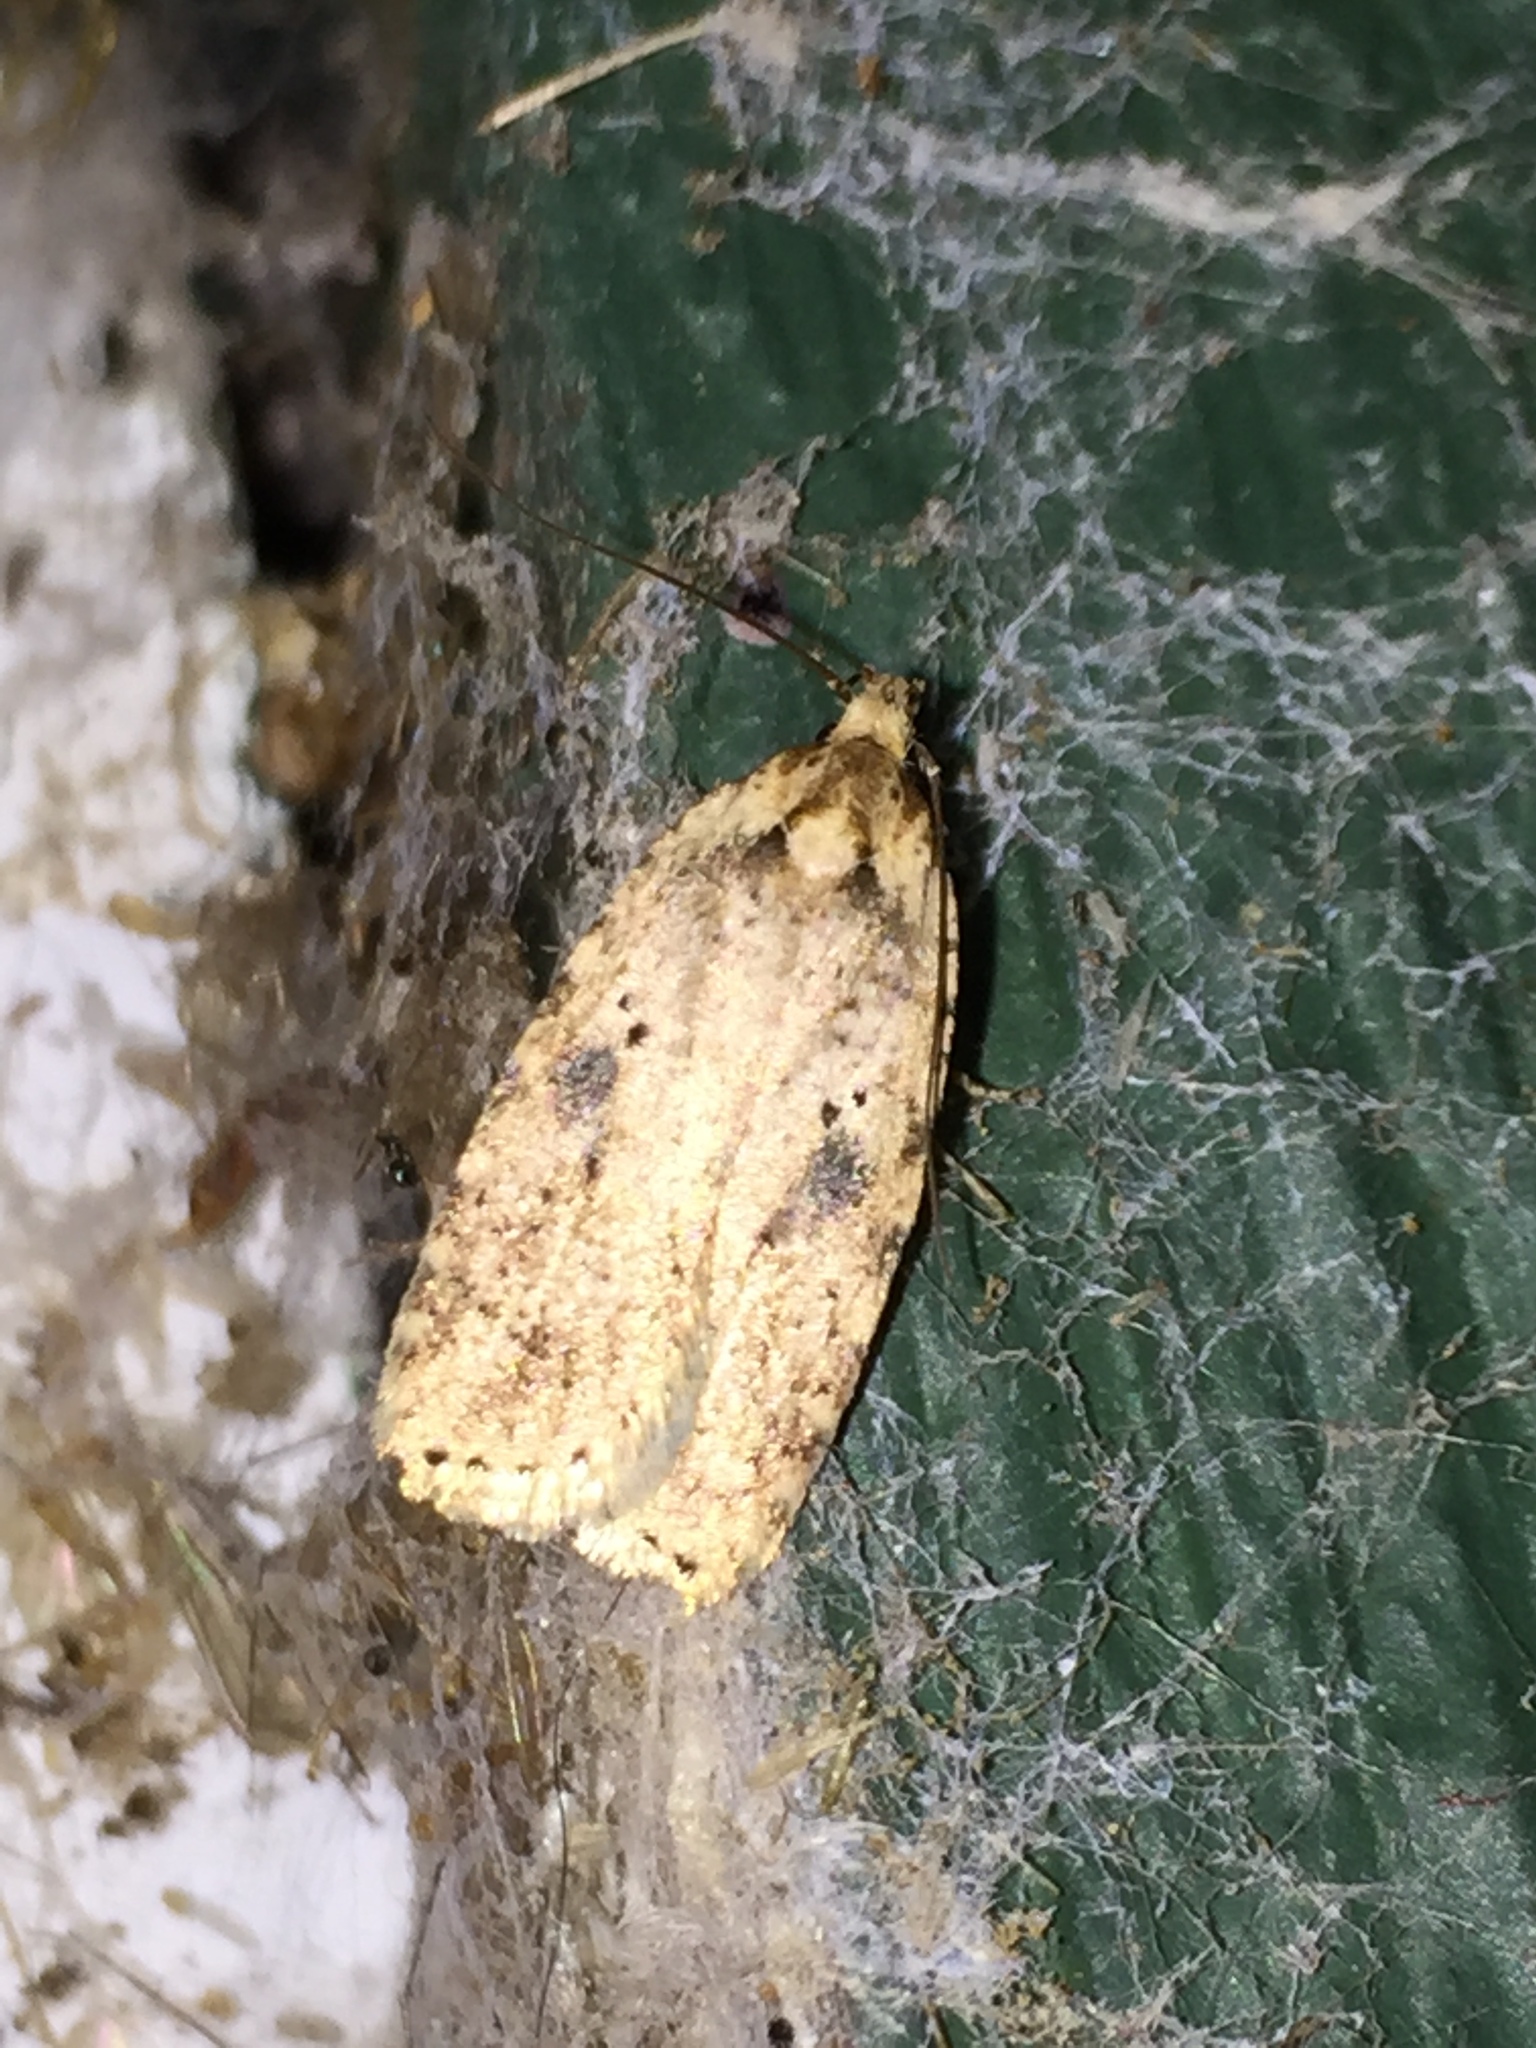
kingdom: Animalia
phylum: Arthropoda
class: Insecta
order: Lepidoptera
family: Depressariidae
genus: Agonopterix
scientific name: Agonopterix canadensis
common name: Canadian agonopterix moth
